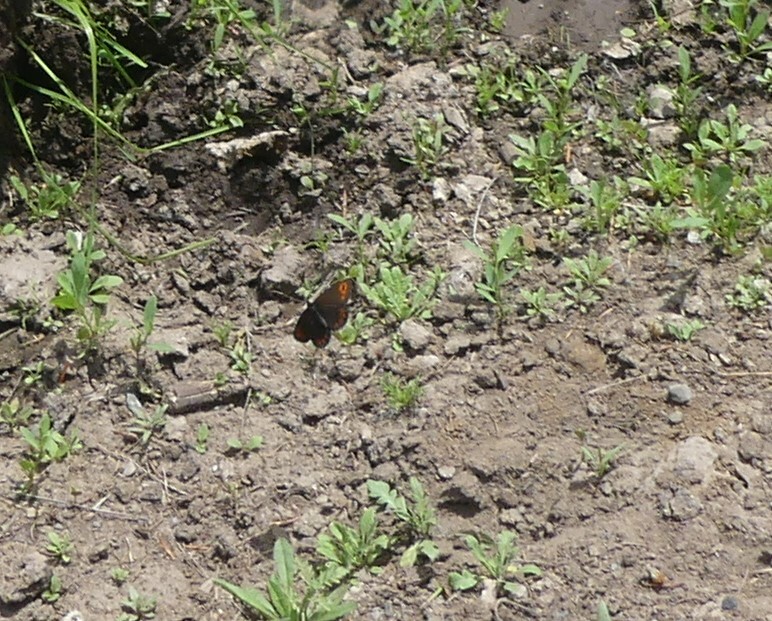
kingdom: Animalia
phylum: Arthropoda
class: Insecta
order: Lepidoptera
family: Nymphalidae
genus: Erebia
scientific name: Erebia epipsodea
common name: Common alpine
